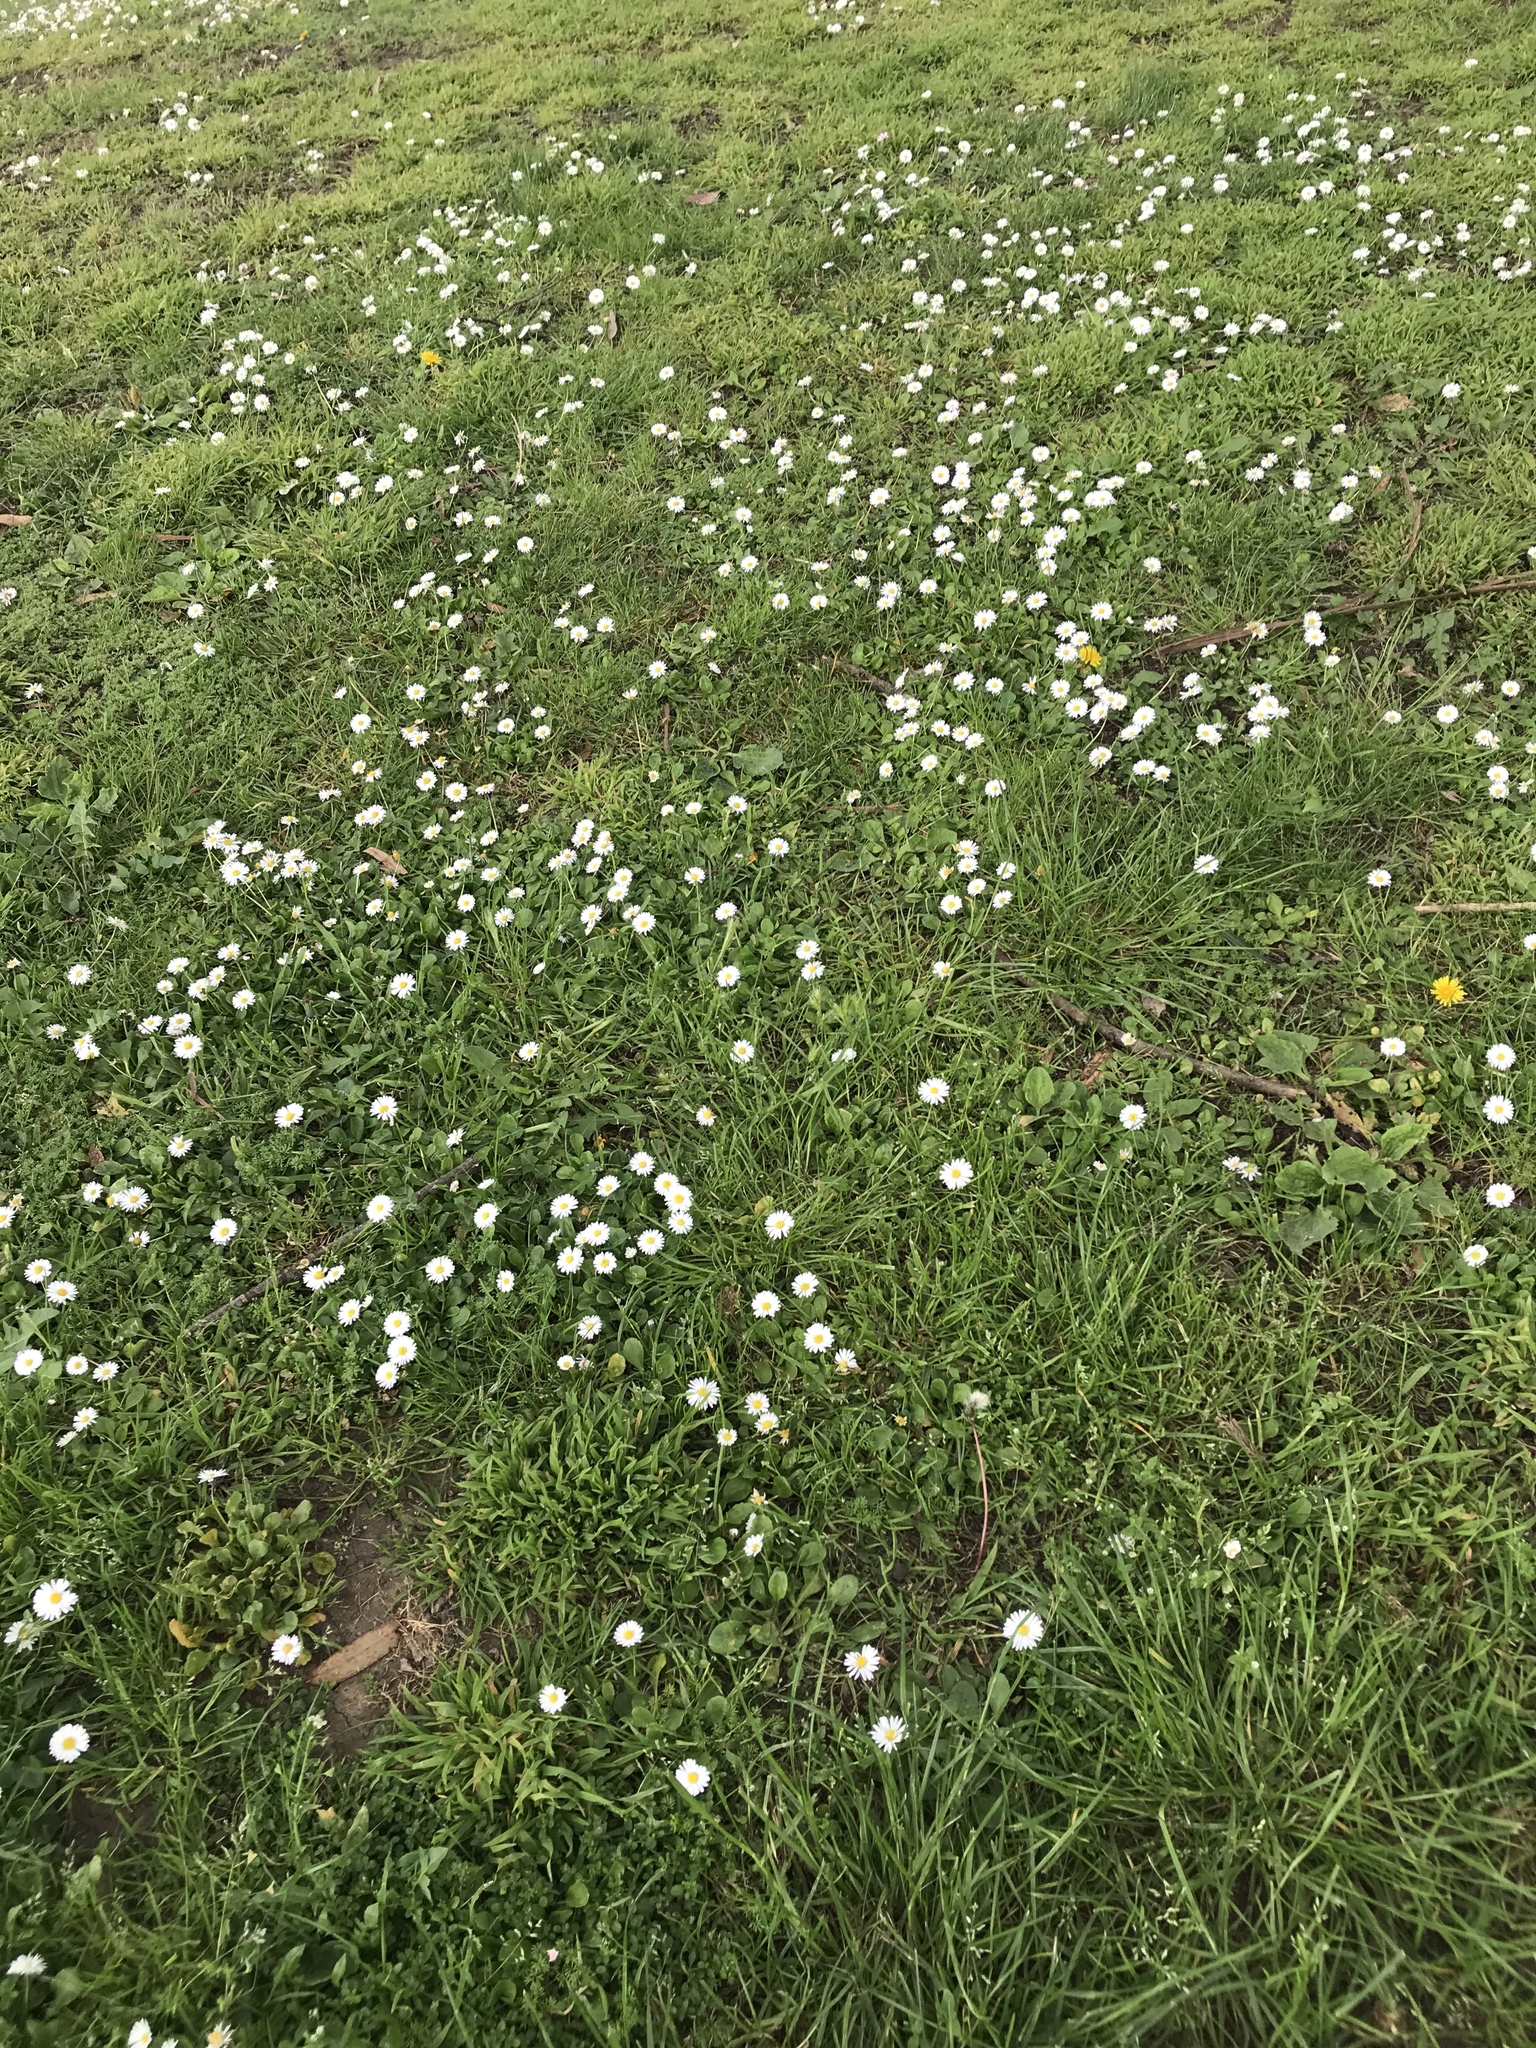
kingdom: Plantae
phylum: Tracheophyta
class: Magnoliopsida
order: Asterales
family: Asteraceae
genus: Bellis
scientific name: Bellis perennis
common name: Lawndaisy
